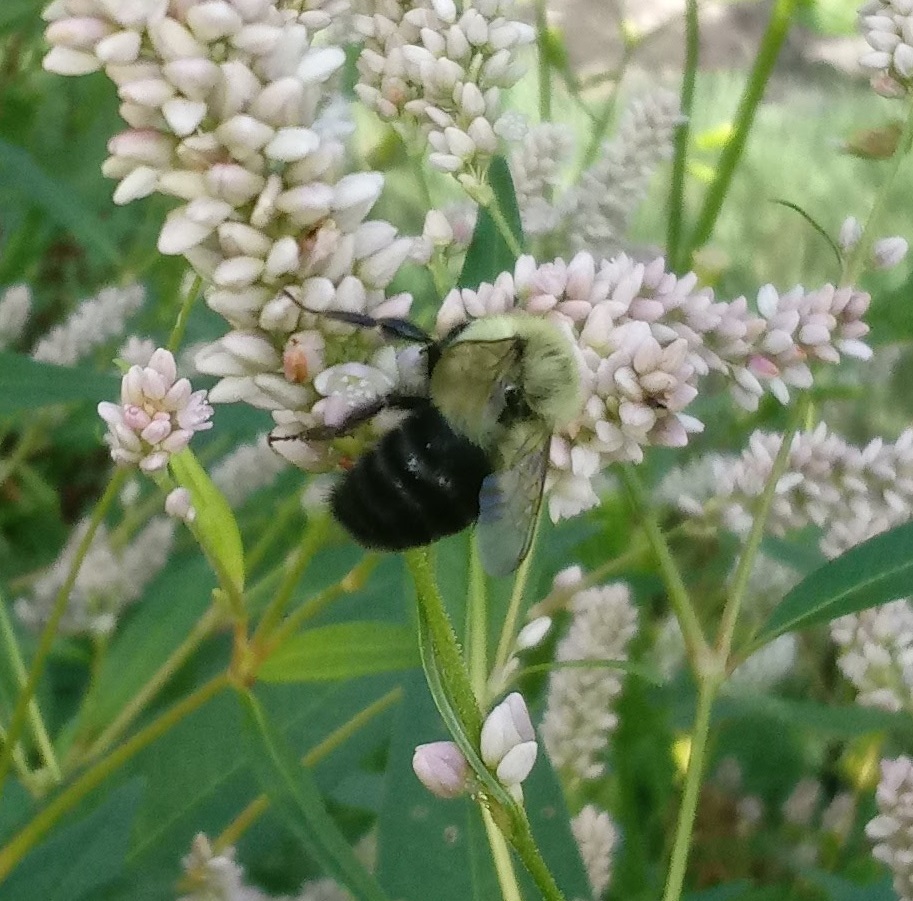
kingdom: Animalia
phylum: Arthropoda
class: Insecta
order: Hymenoptera
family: Apidae
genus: Bombus
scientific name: Bombus impatiens
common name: Common eastern bumble bee
